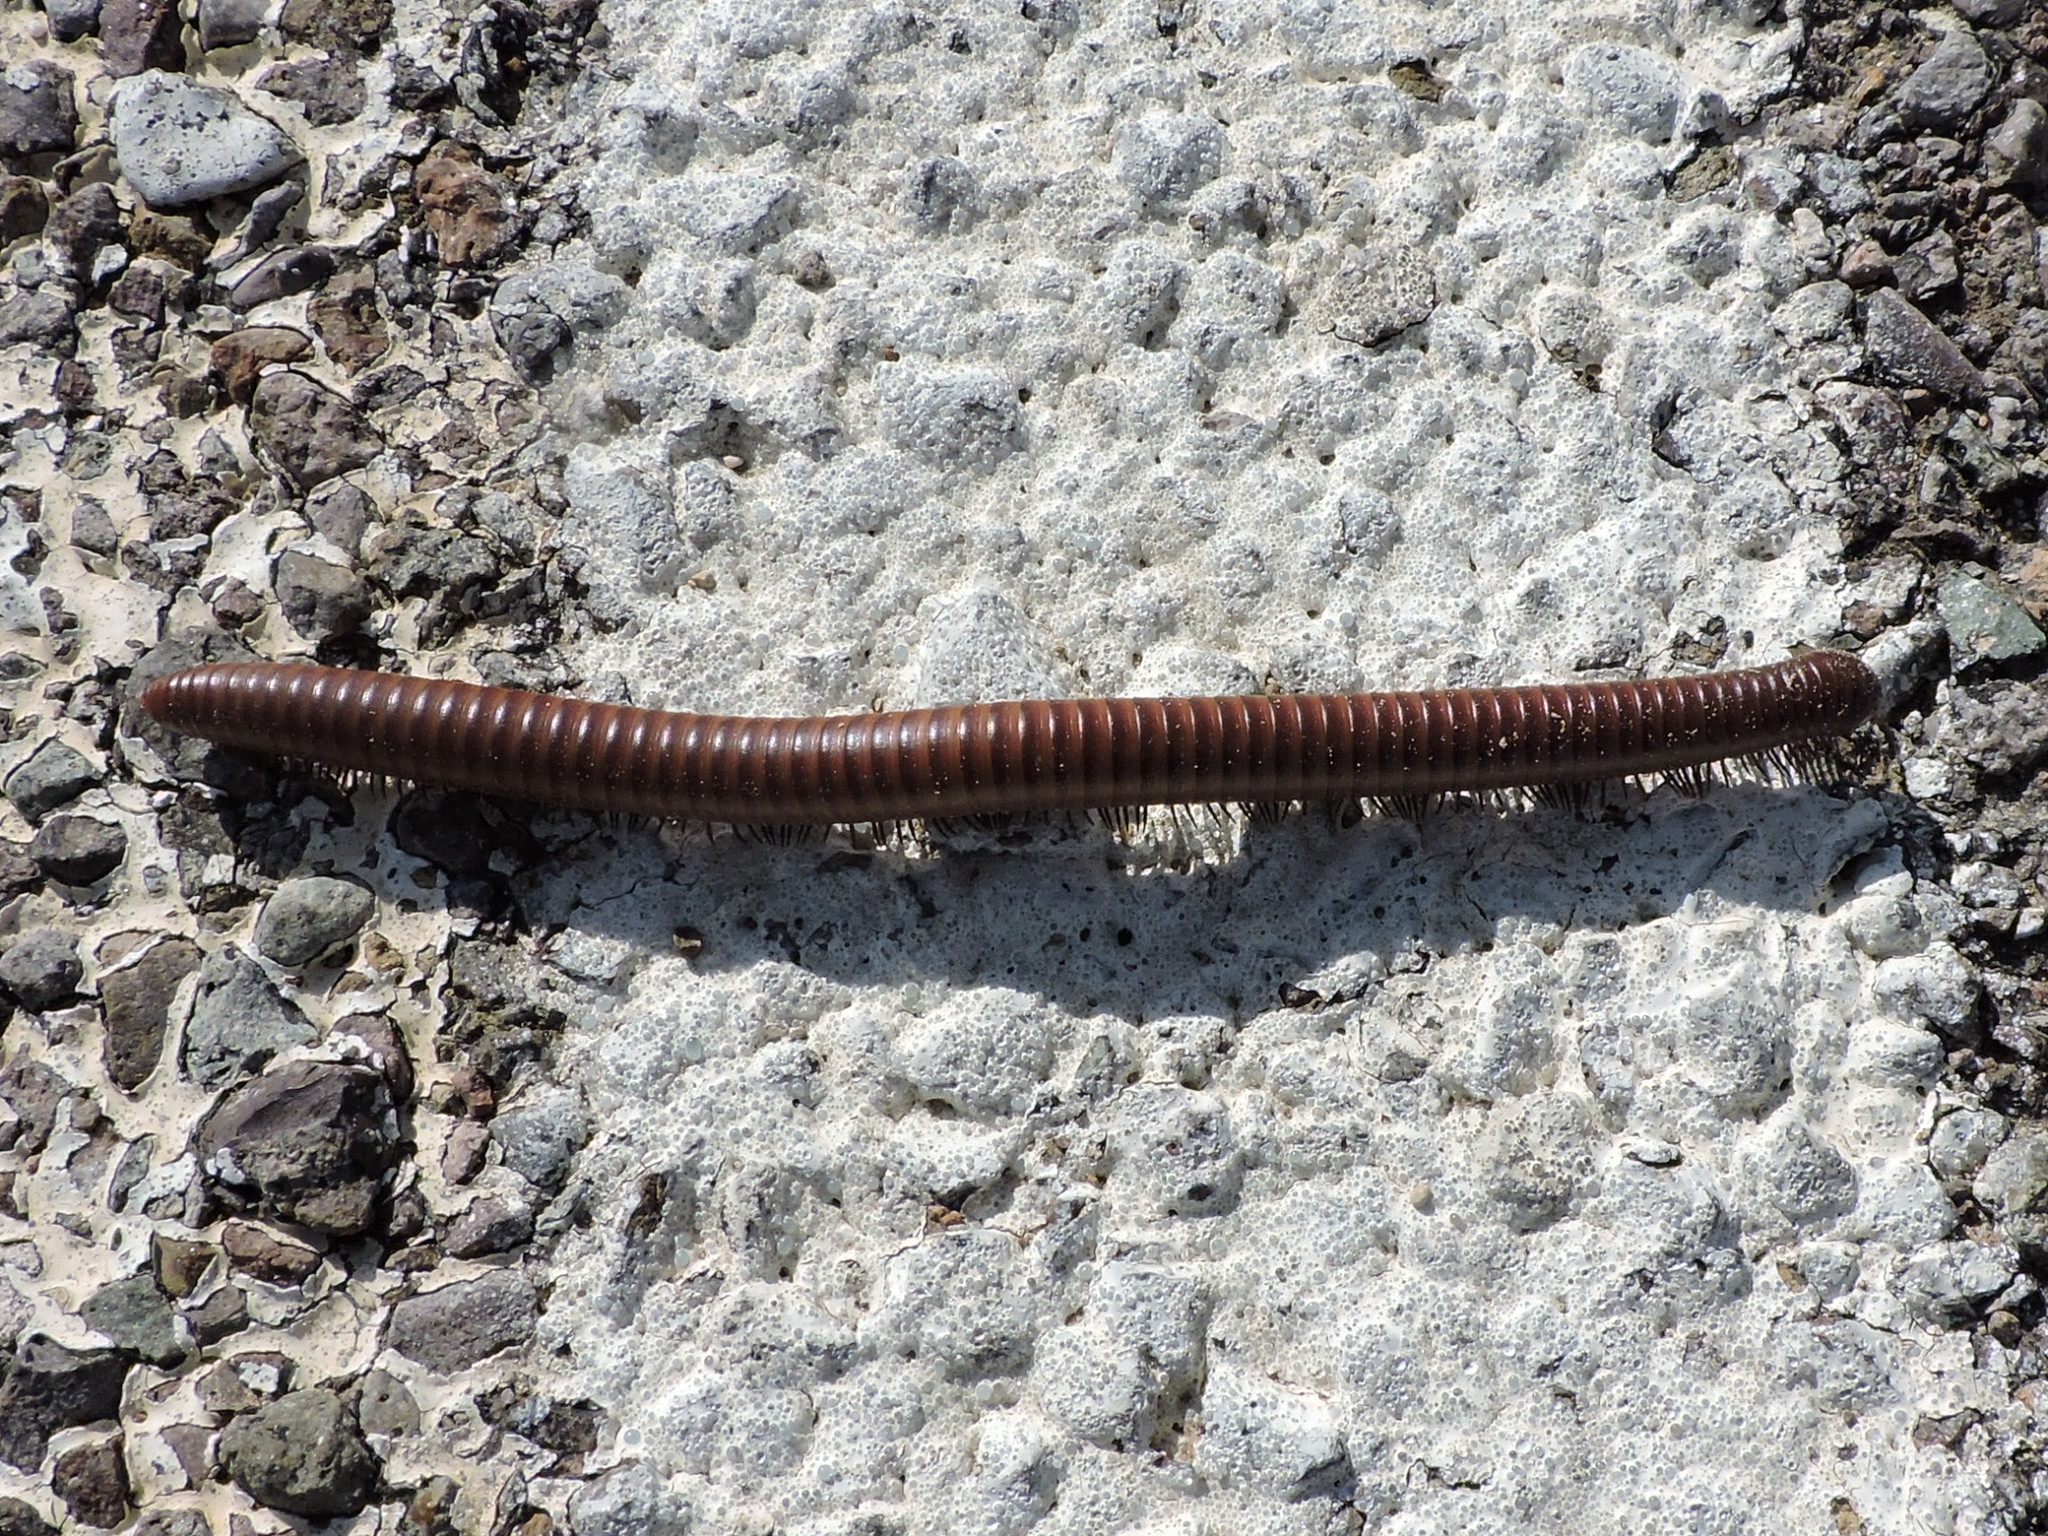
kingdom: Animalia
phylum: Arthropoda
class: Diplopoda
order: Spirostreptida
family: Spirostreptidae
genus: Orthoporus
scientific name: Orthoporus ornatus
